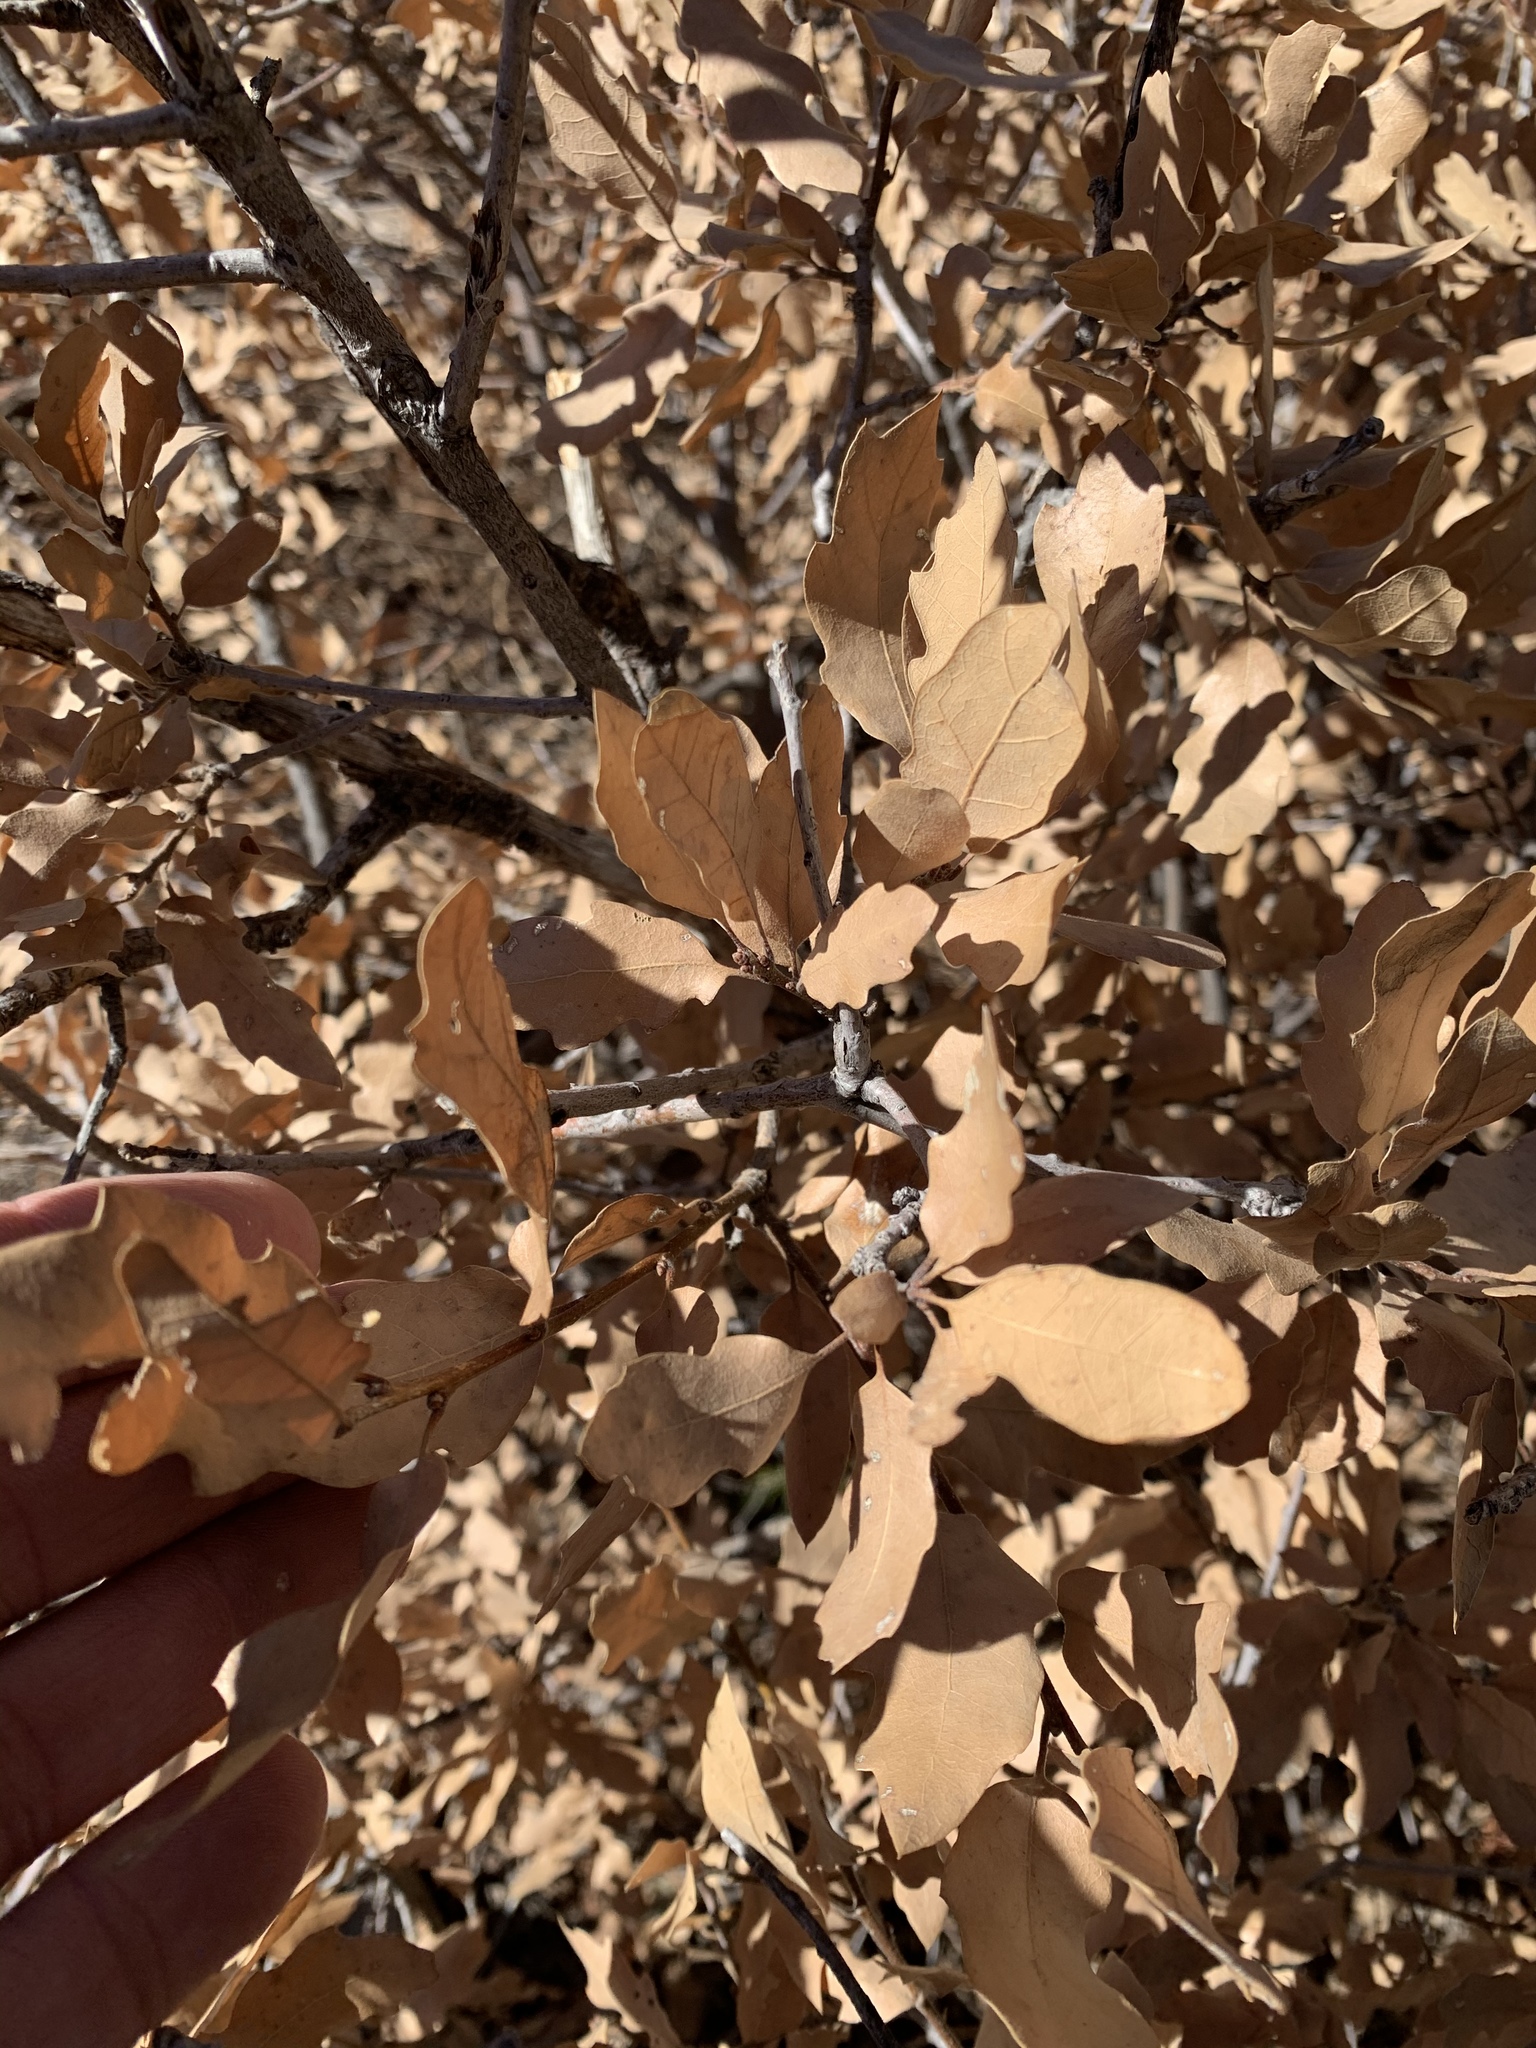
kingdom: Plantae
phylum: Tracheophyta
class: Magnoliopsida
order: Fagales
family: Fagaceae
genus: Quercus
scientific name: Quercus undulata
